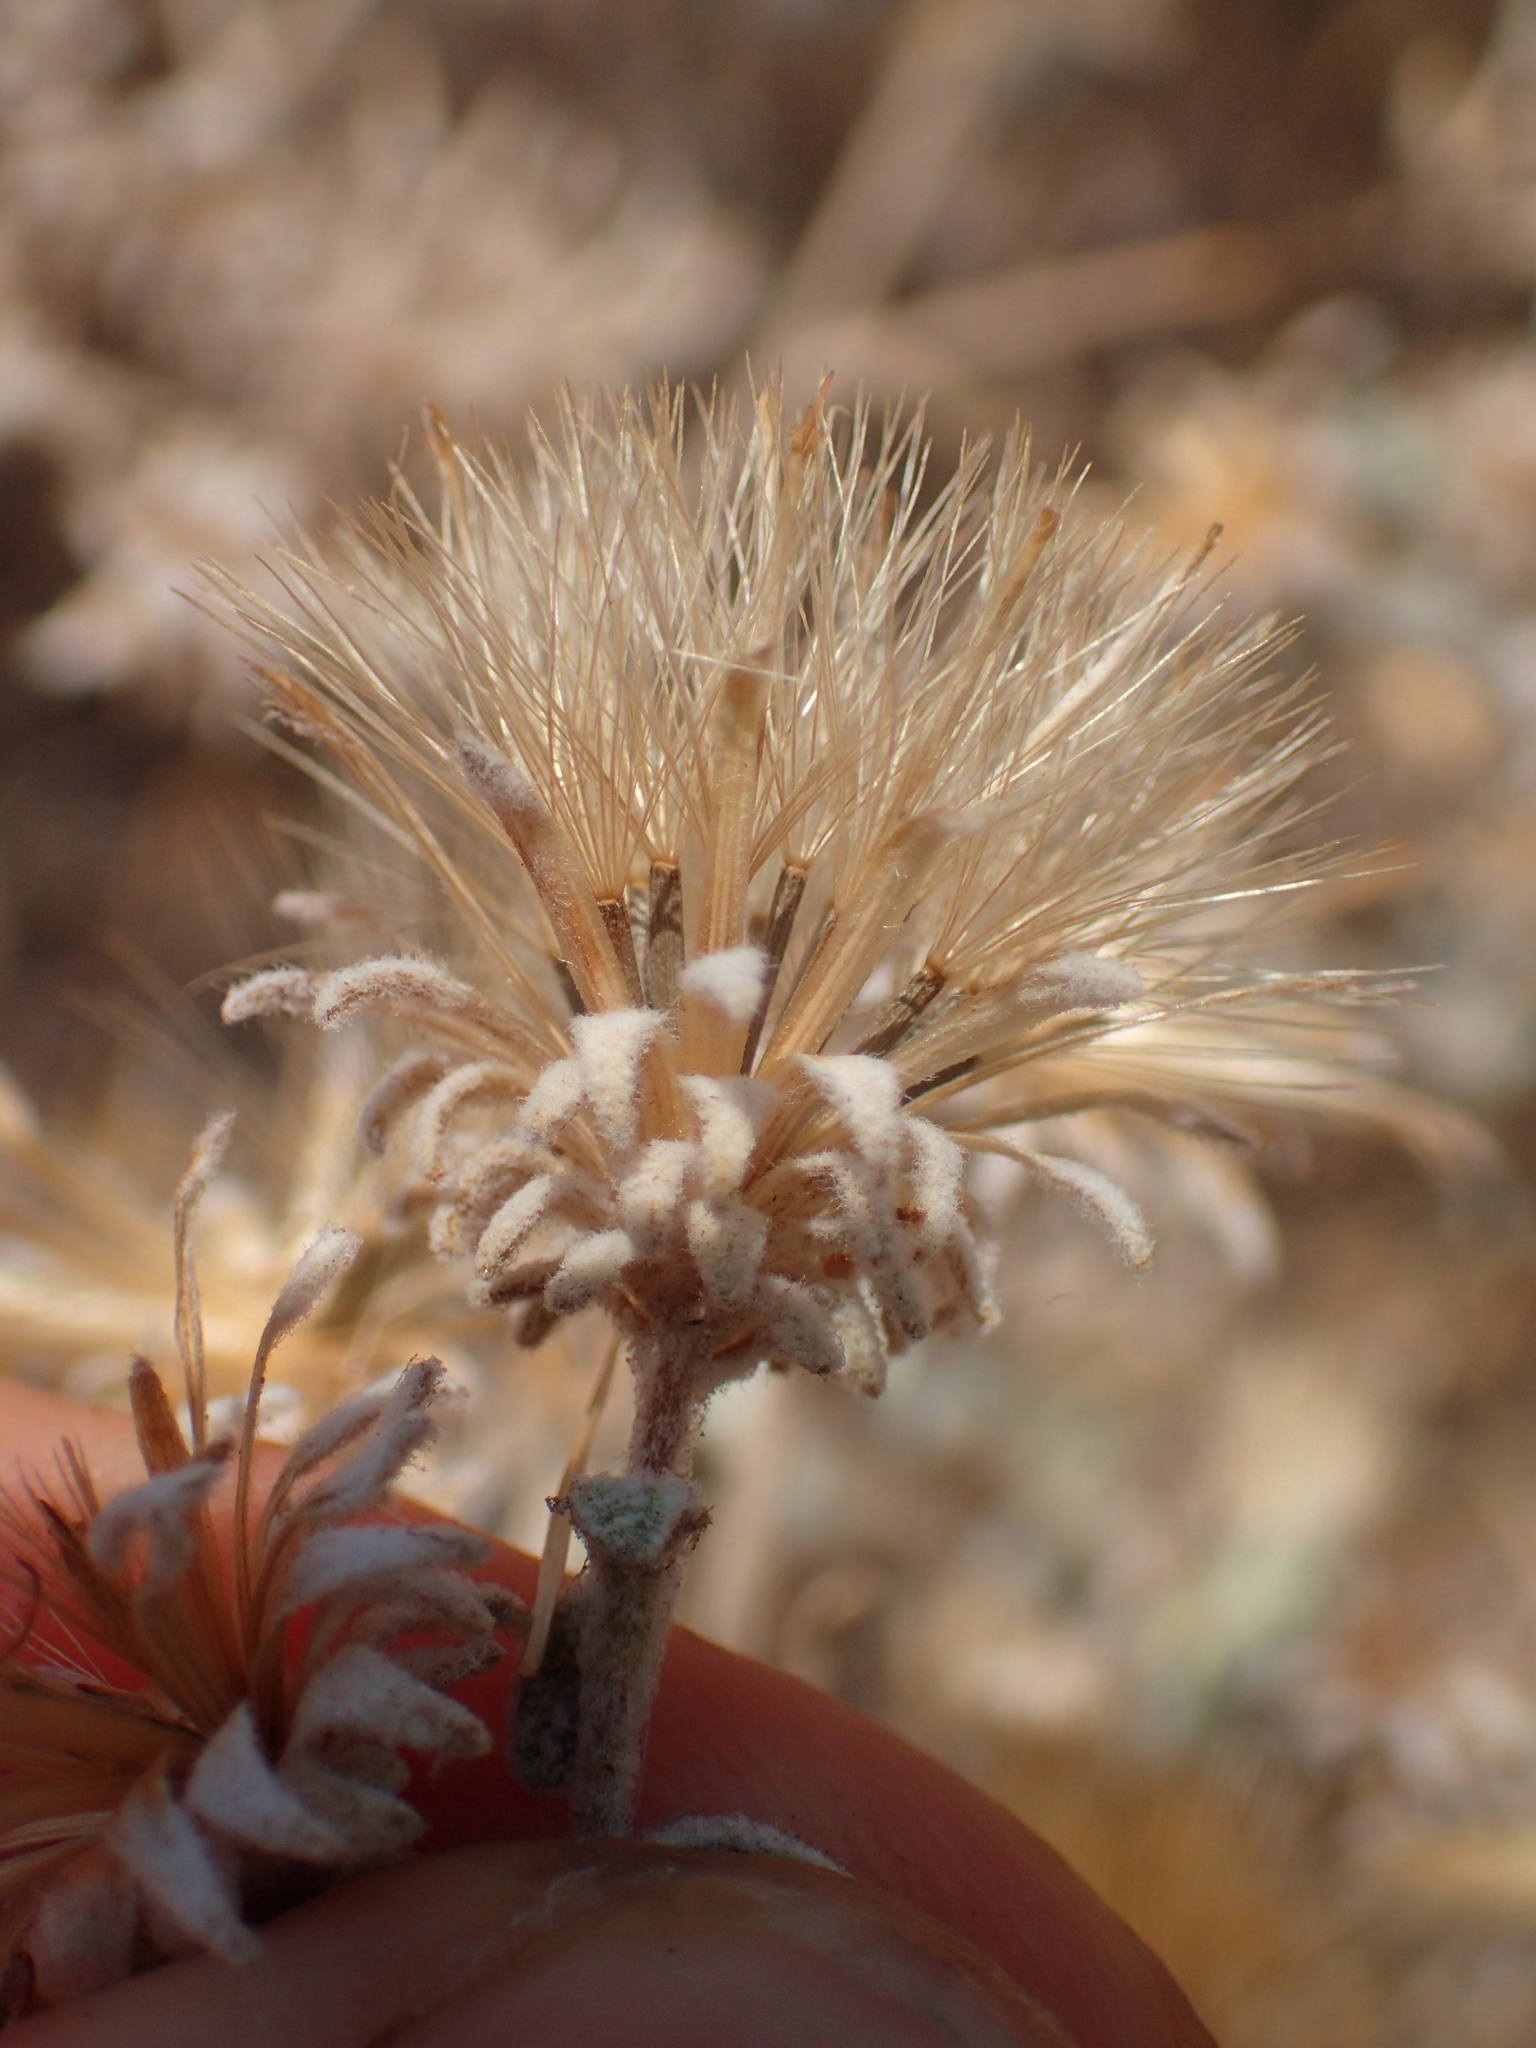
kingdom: Plantae
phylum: Tracheophyta
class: Magnoliopsida
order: Asterales
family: Asteraceae
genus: Brickellia
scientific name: Brickellia nevinii
